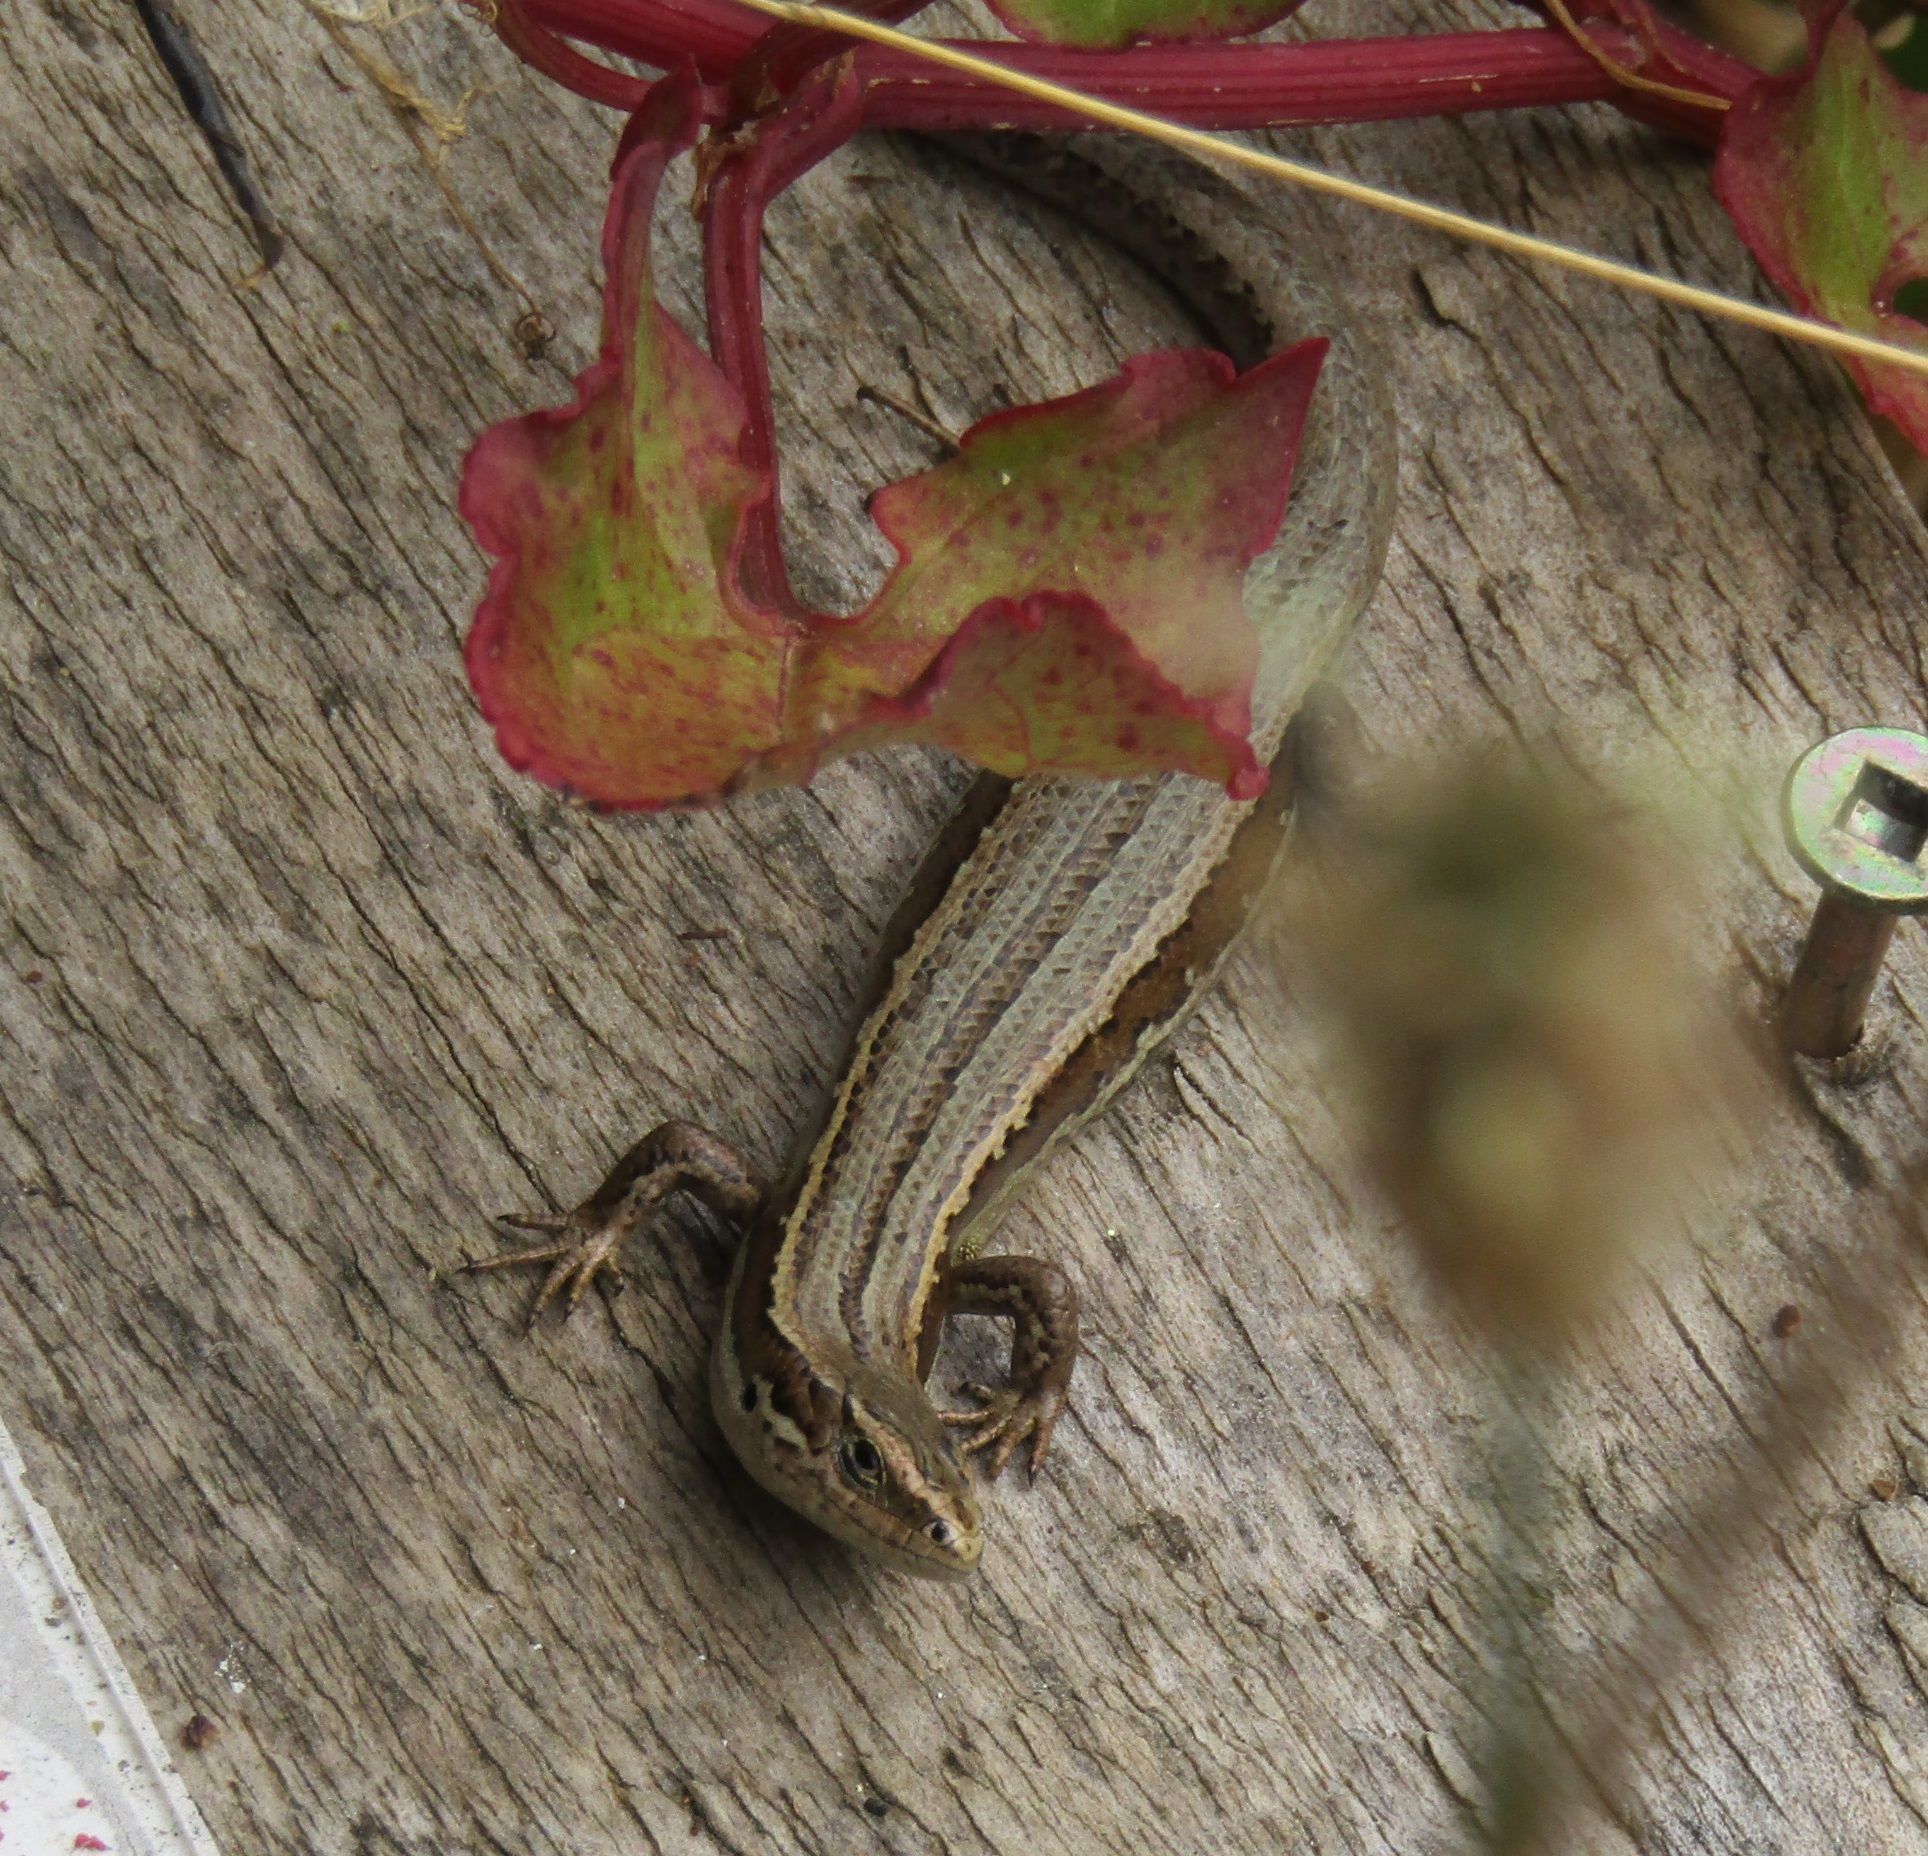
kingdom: Animalia
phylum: Chordata
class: Squamata
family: Scincidae
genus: Oligosoma
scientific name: Oligosoma polychroma
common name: Common new zealand skink
